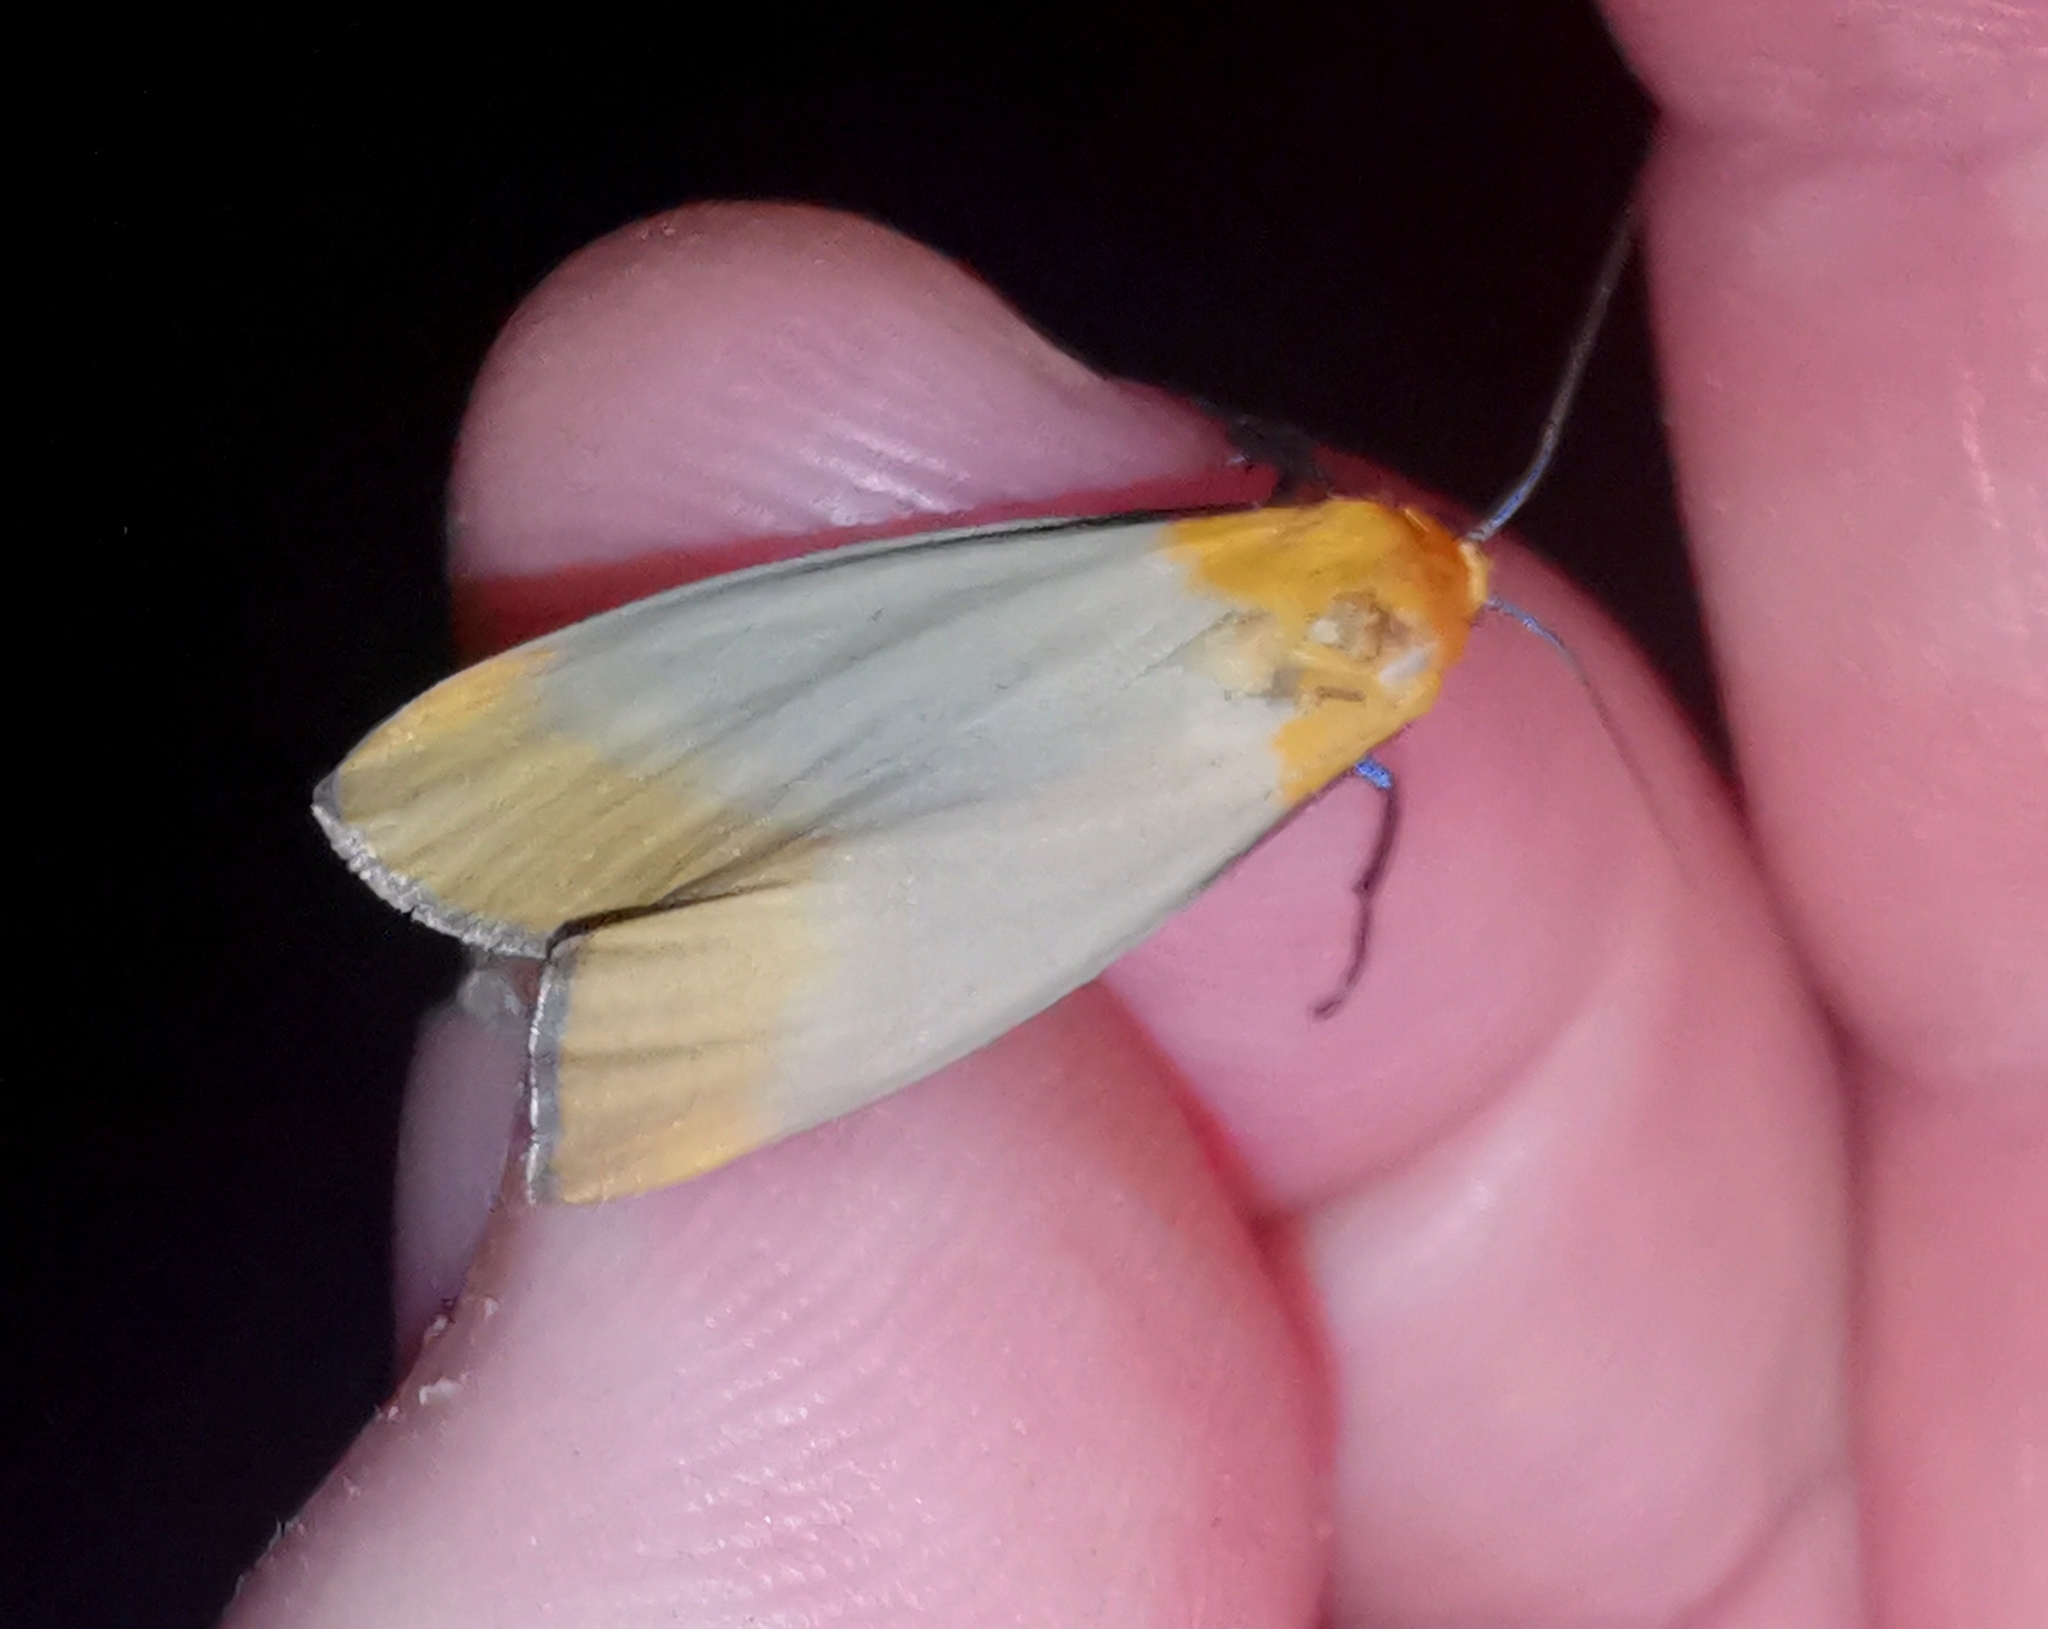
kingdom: Animalia
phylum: Arthropoda
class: Insecta
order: Lepidoptera
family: Erebidae
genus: Lithosia
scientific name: Lithosia quadra
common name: Four-spotted footman
